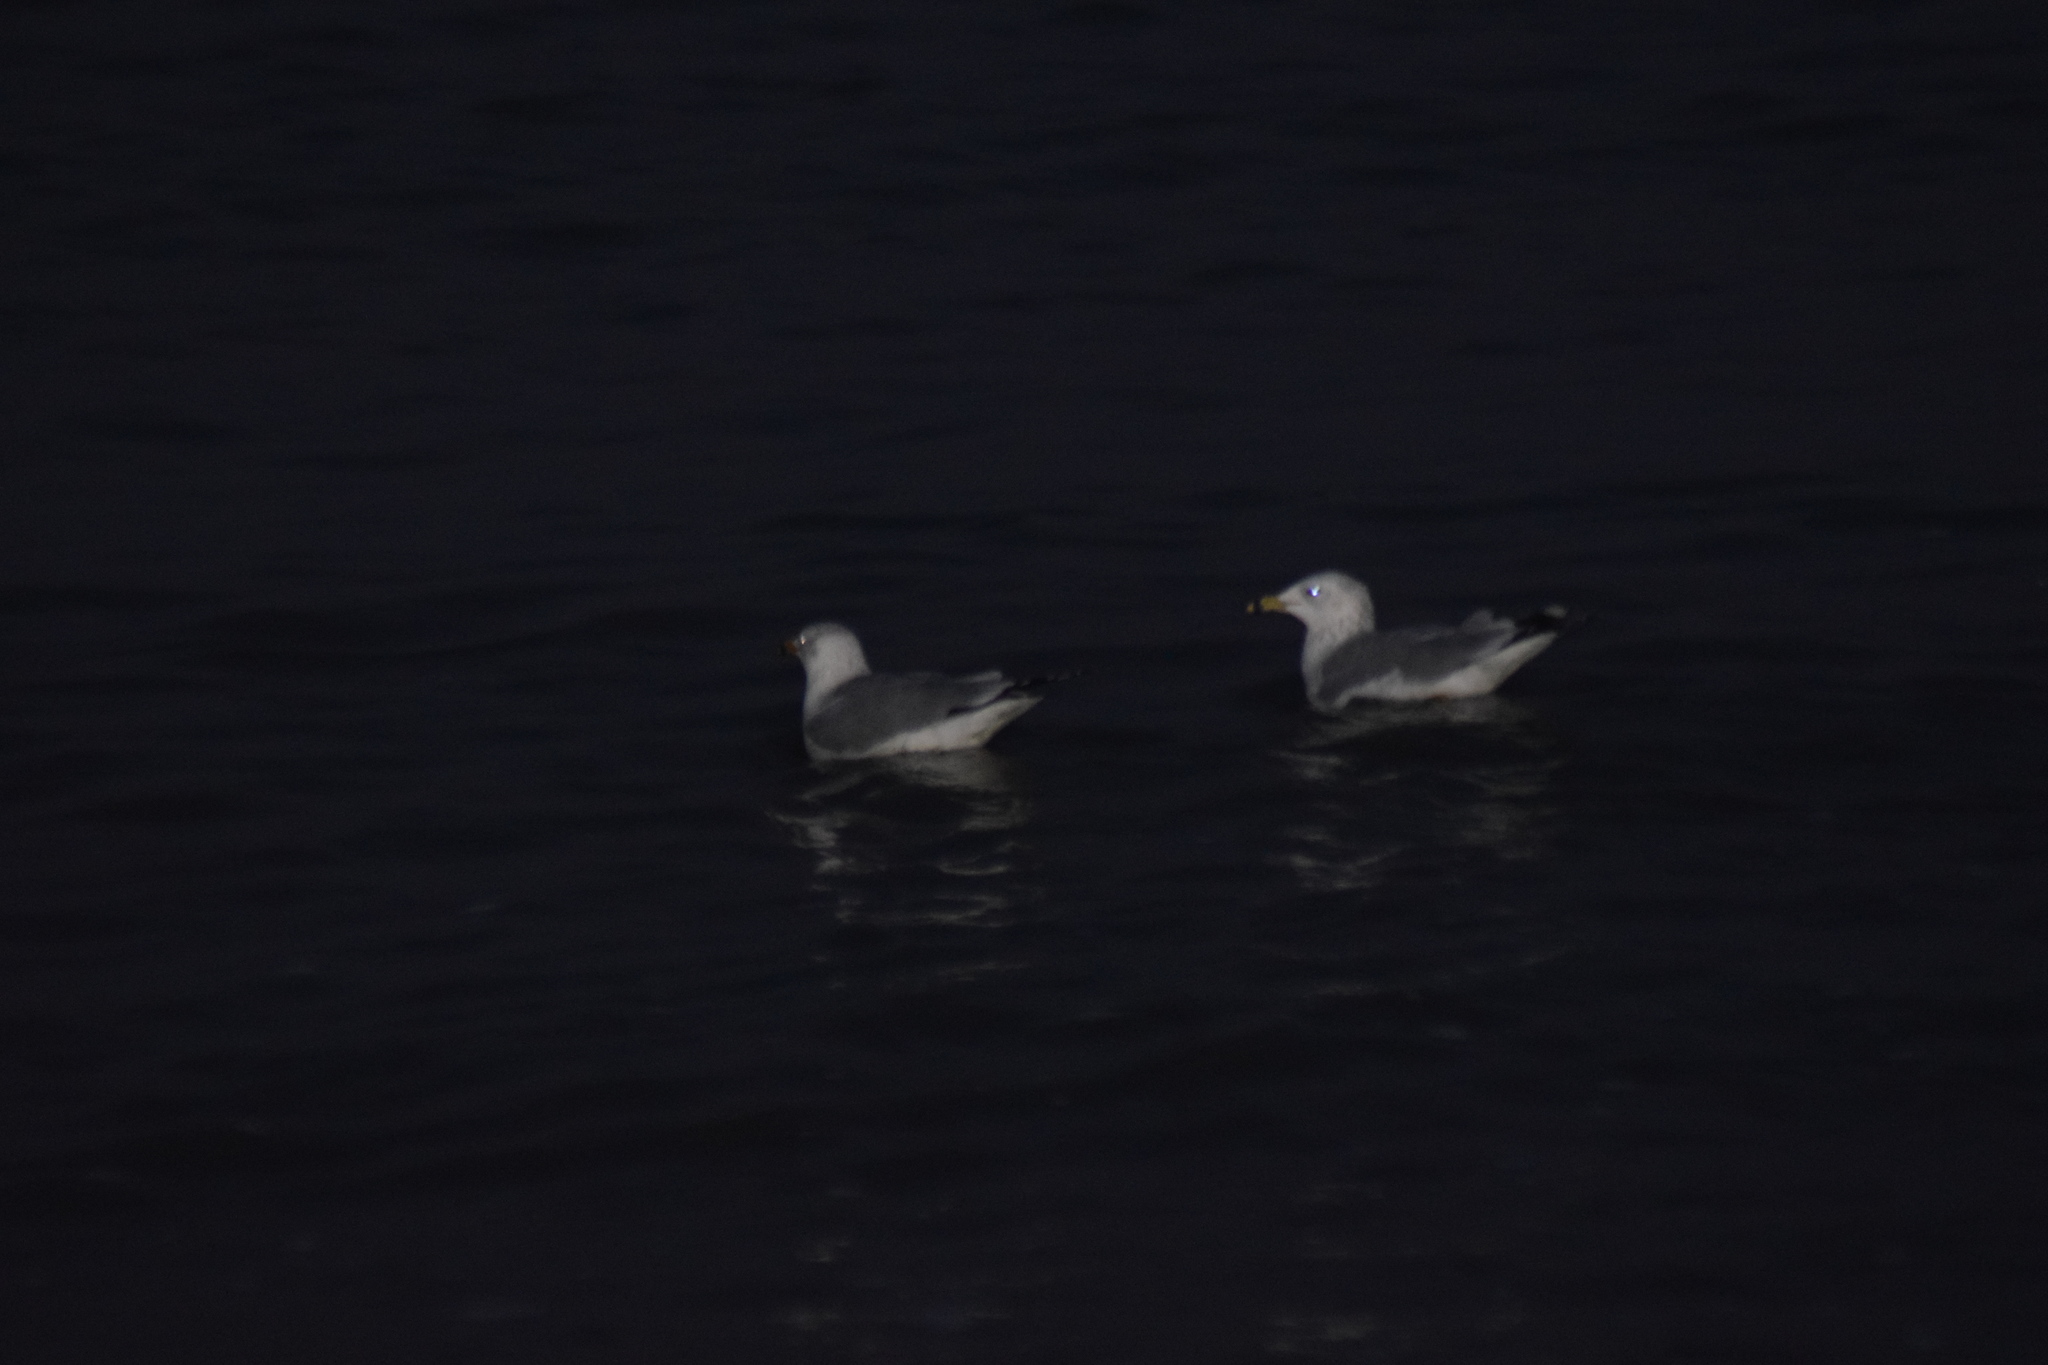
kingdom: Animalia
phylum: Chordata
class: Aves
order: Charadriiformes
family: Laridae
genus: Larus
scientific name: Larus delawarensis
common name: Ring-billed gull
